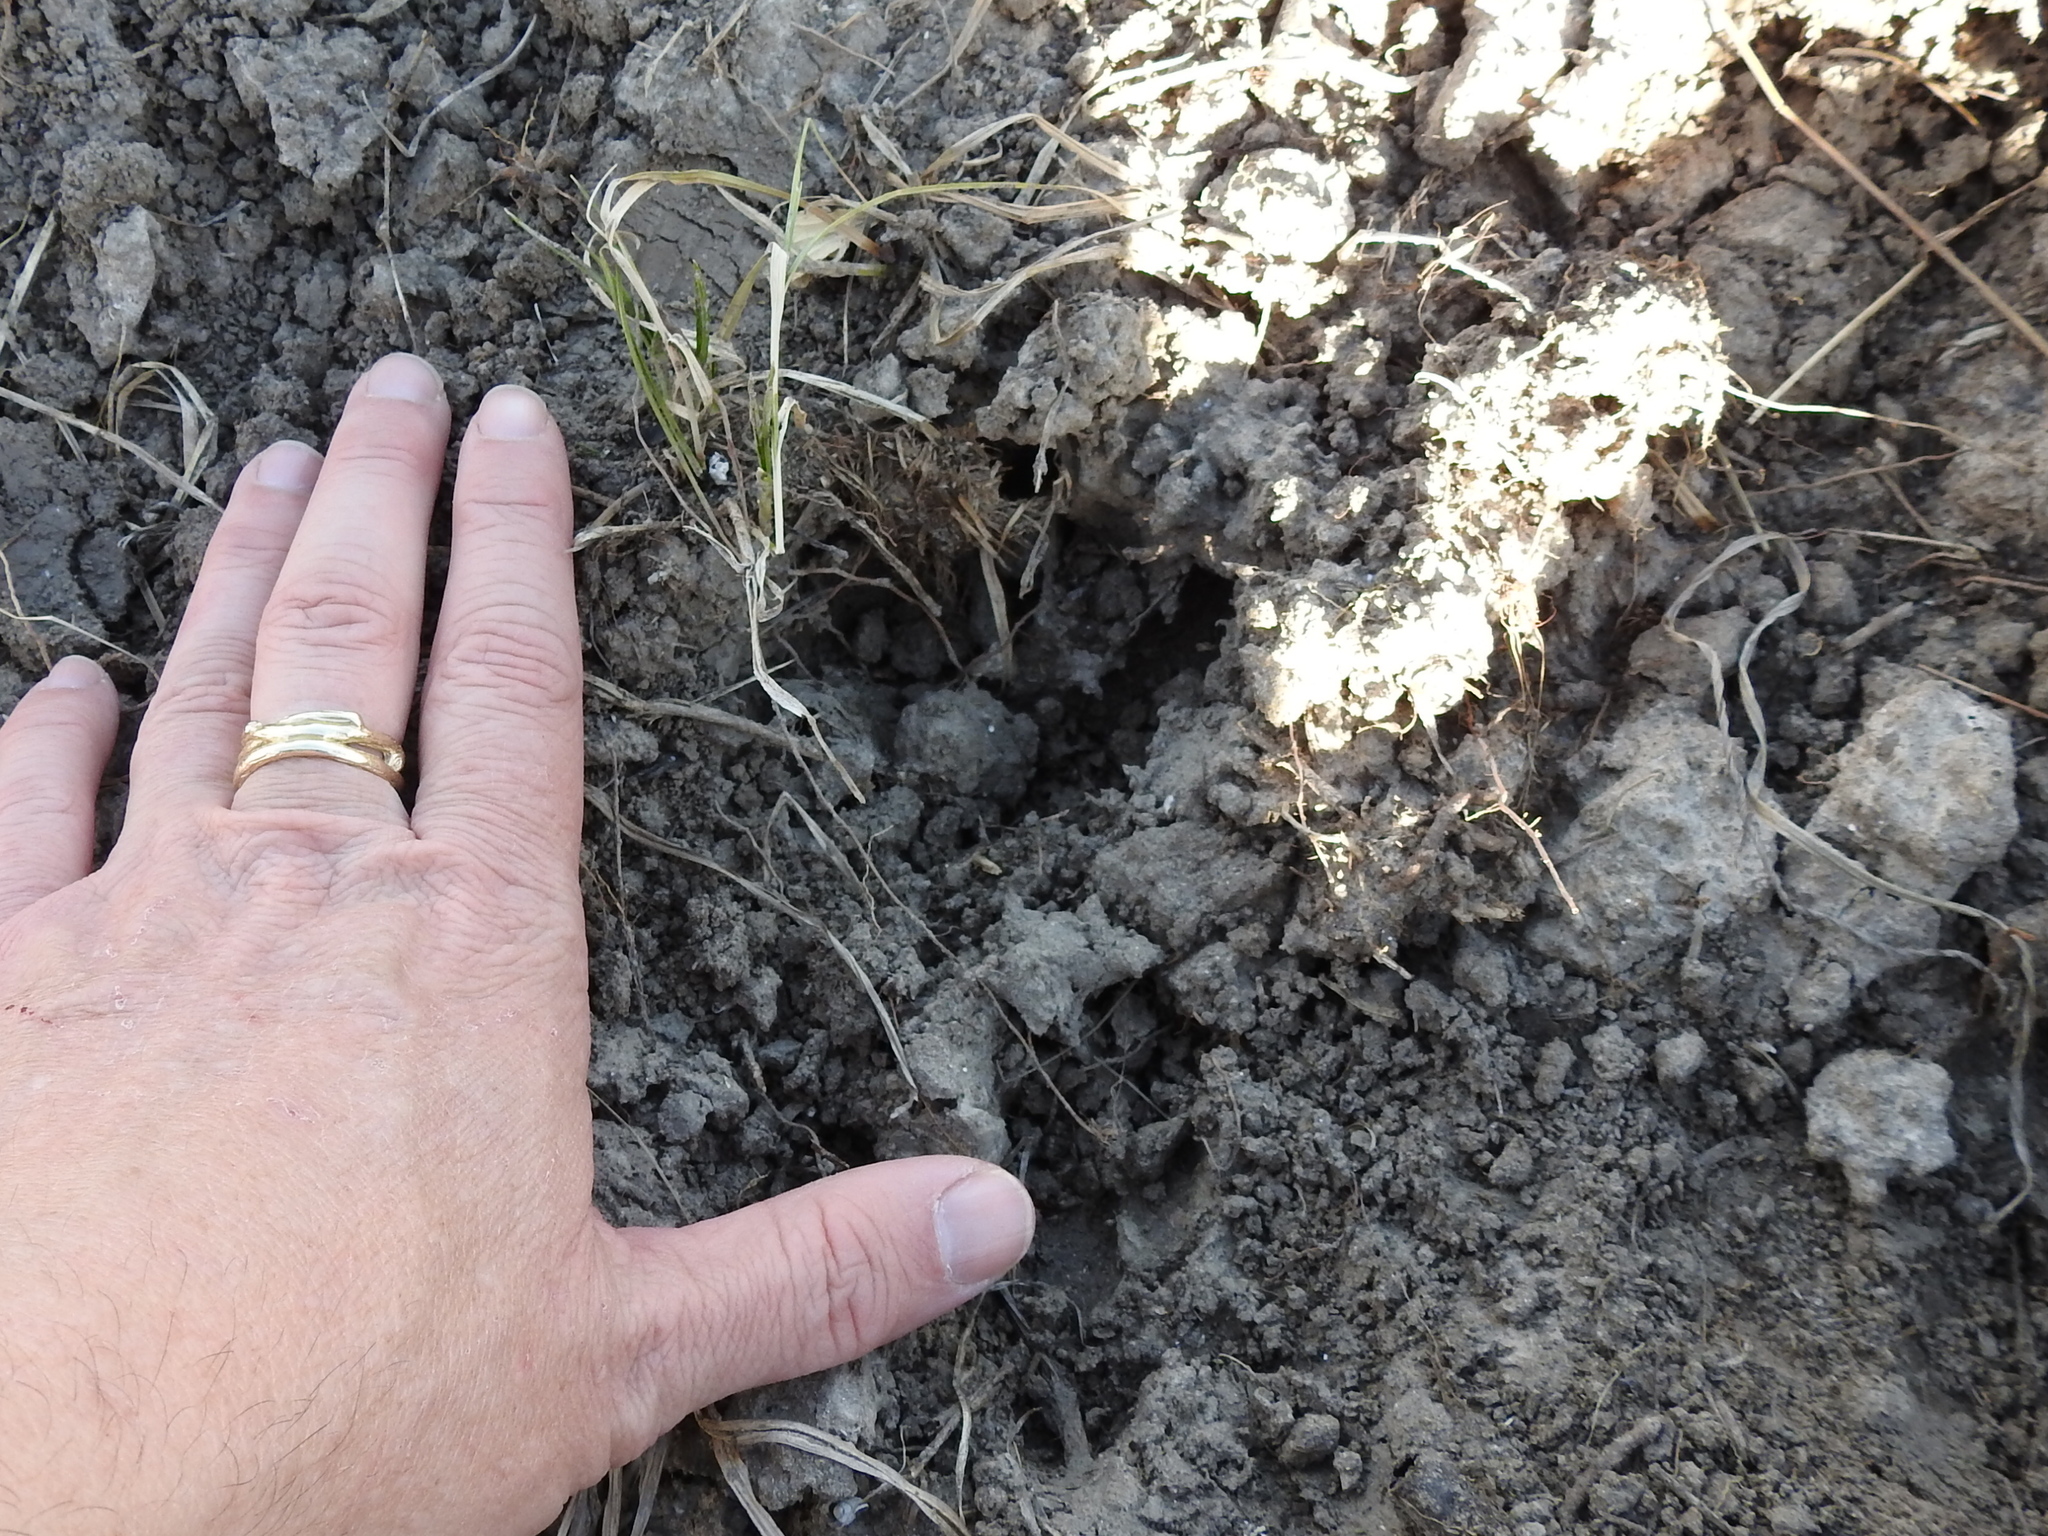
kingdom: Animalia
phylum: Chordata
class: Mammalia
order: Artiodactyla
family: Suidae
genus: Sus
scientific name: Sus scrofa
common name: Wild boar
